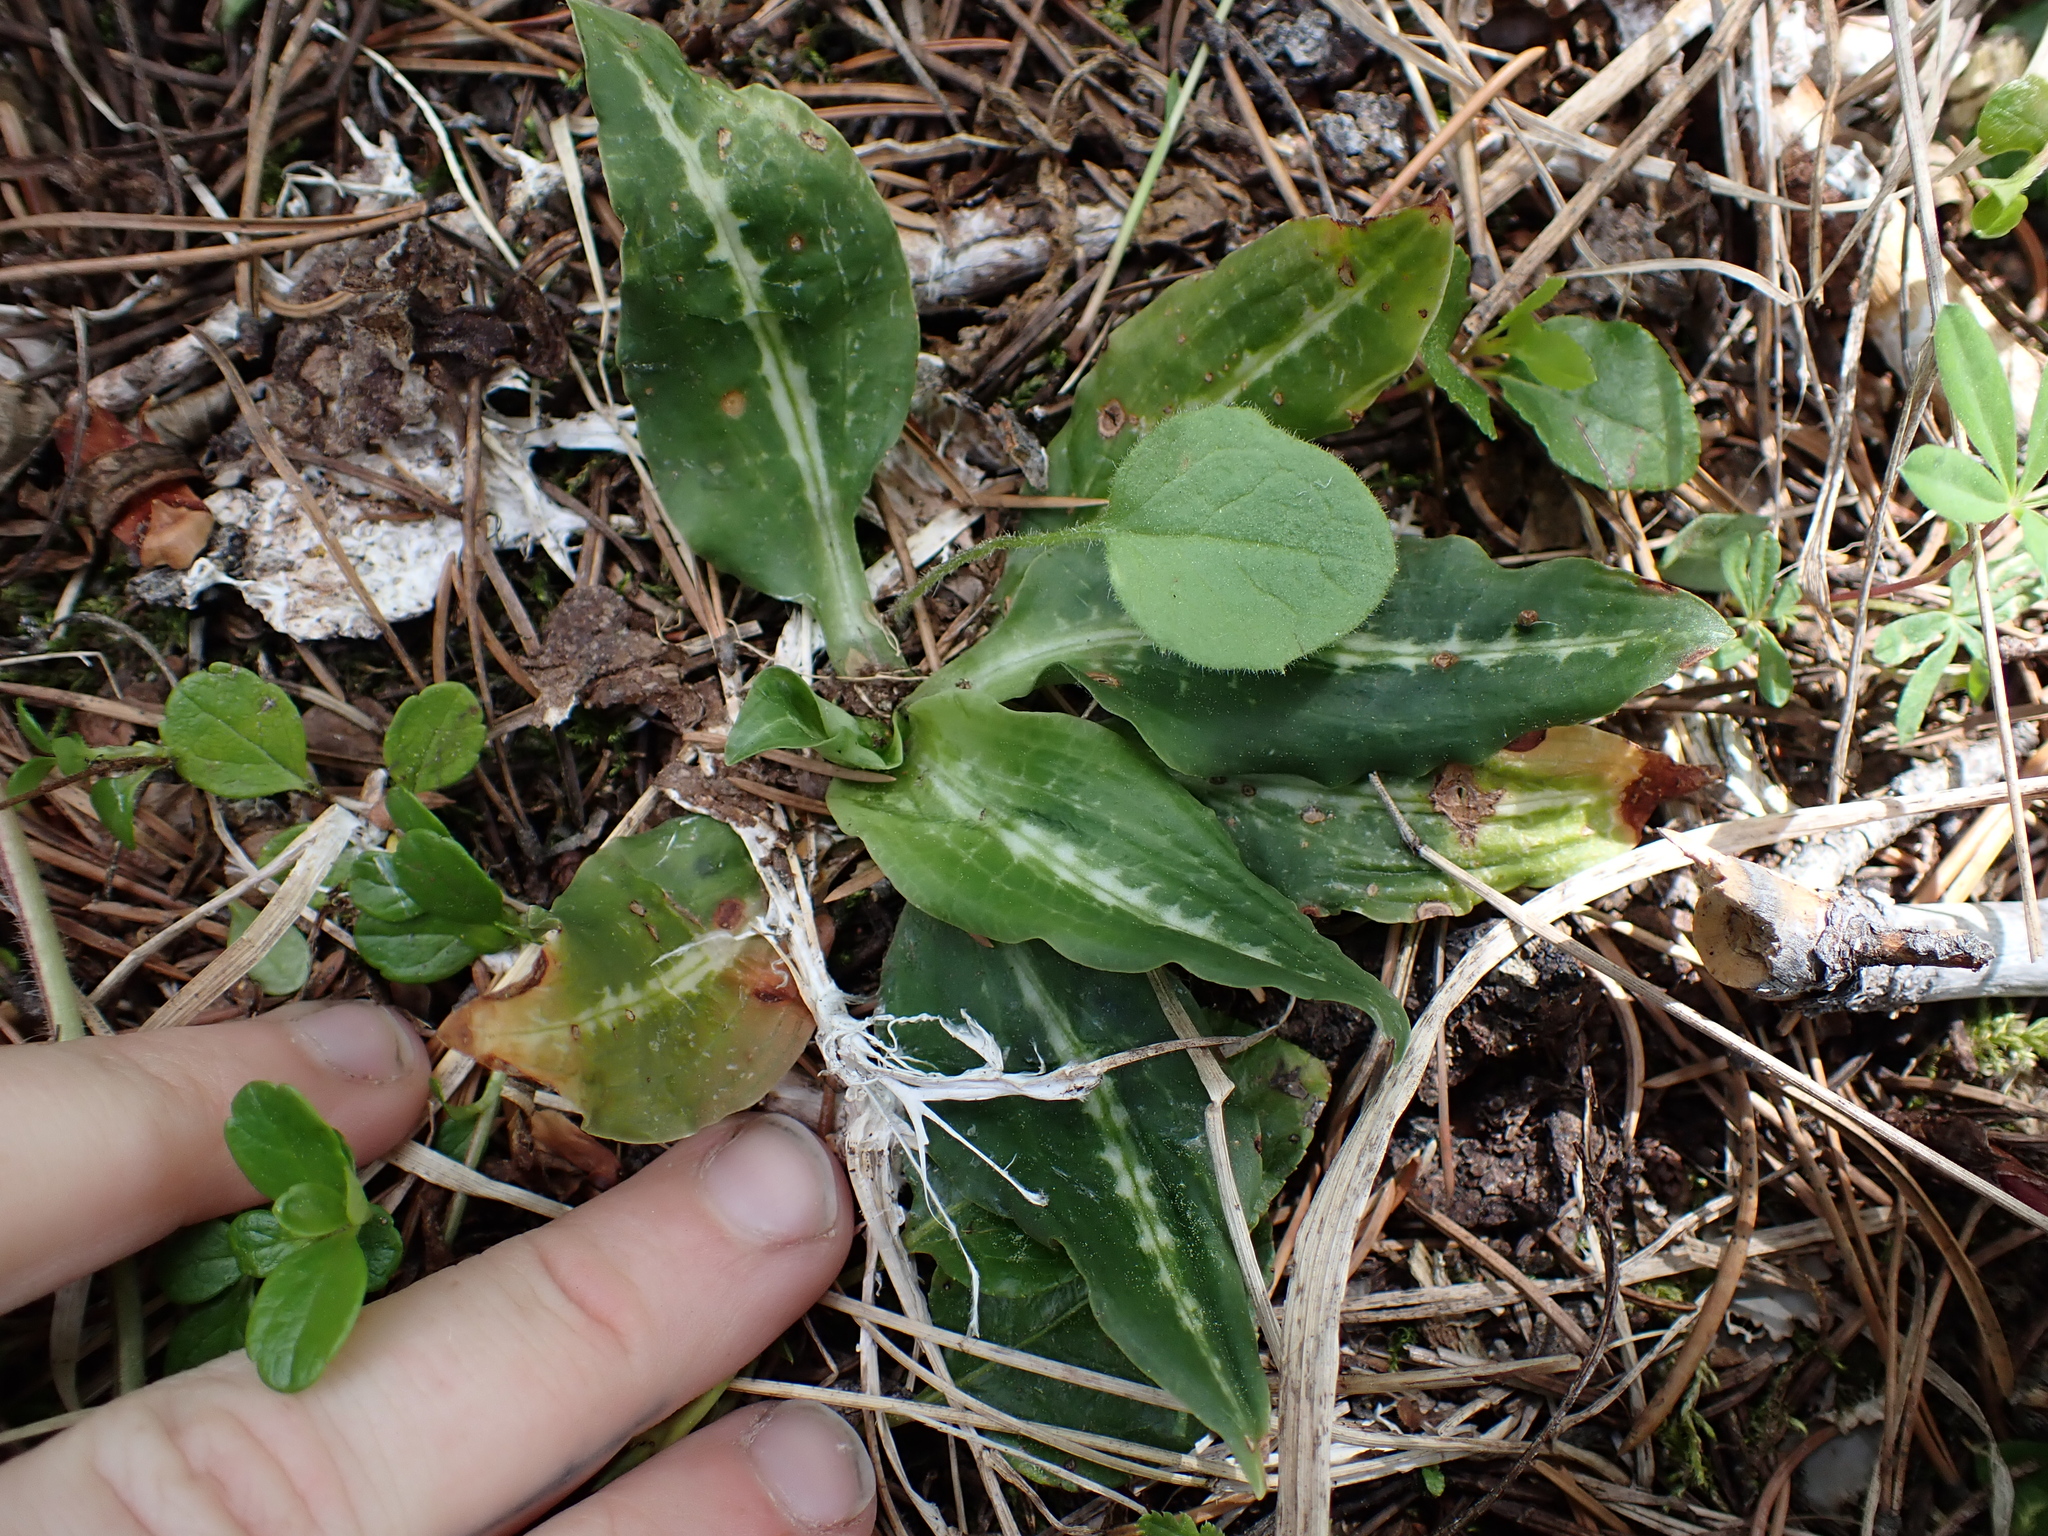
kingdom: Plantae
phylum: Tracheophyta
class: Liliopsida
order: Asparagales
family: Orchidaceae
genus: Goodyera
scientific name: Goodyera oblongifolia
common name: Giant rattlesnake-plantain
